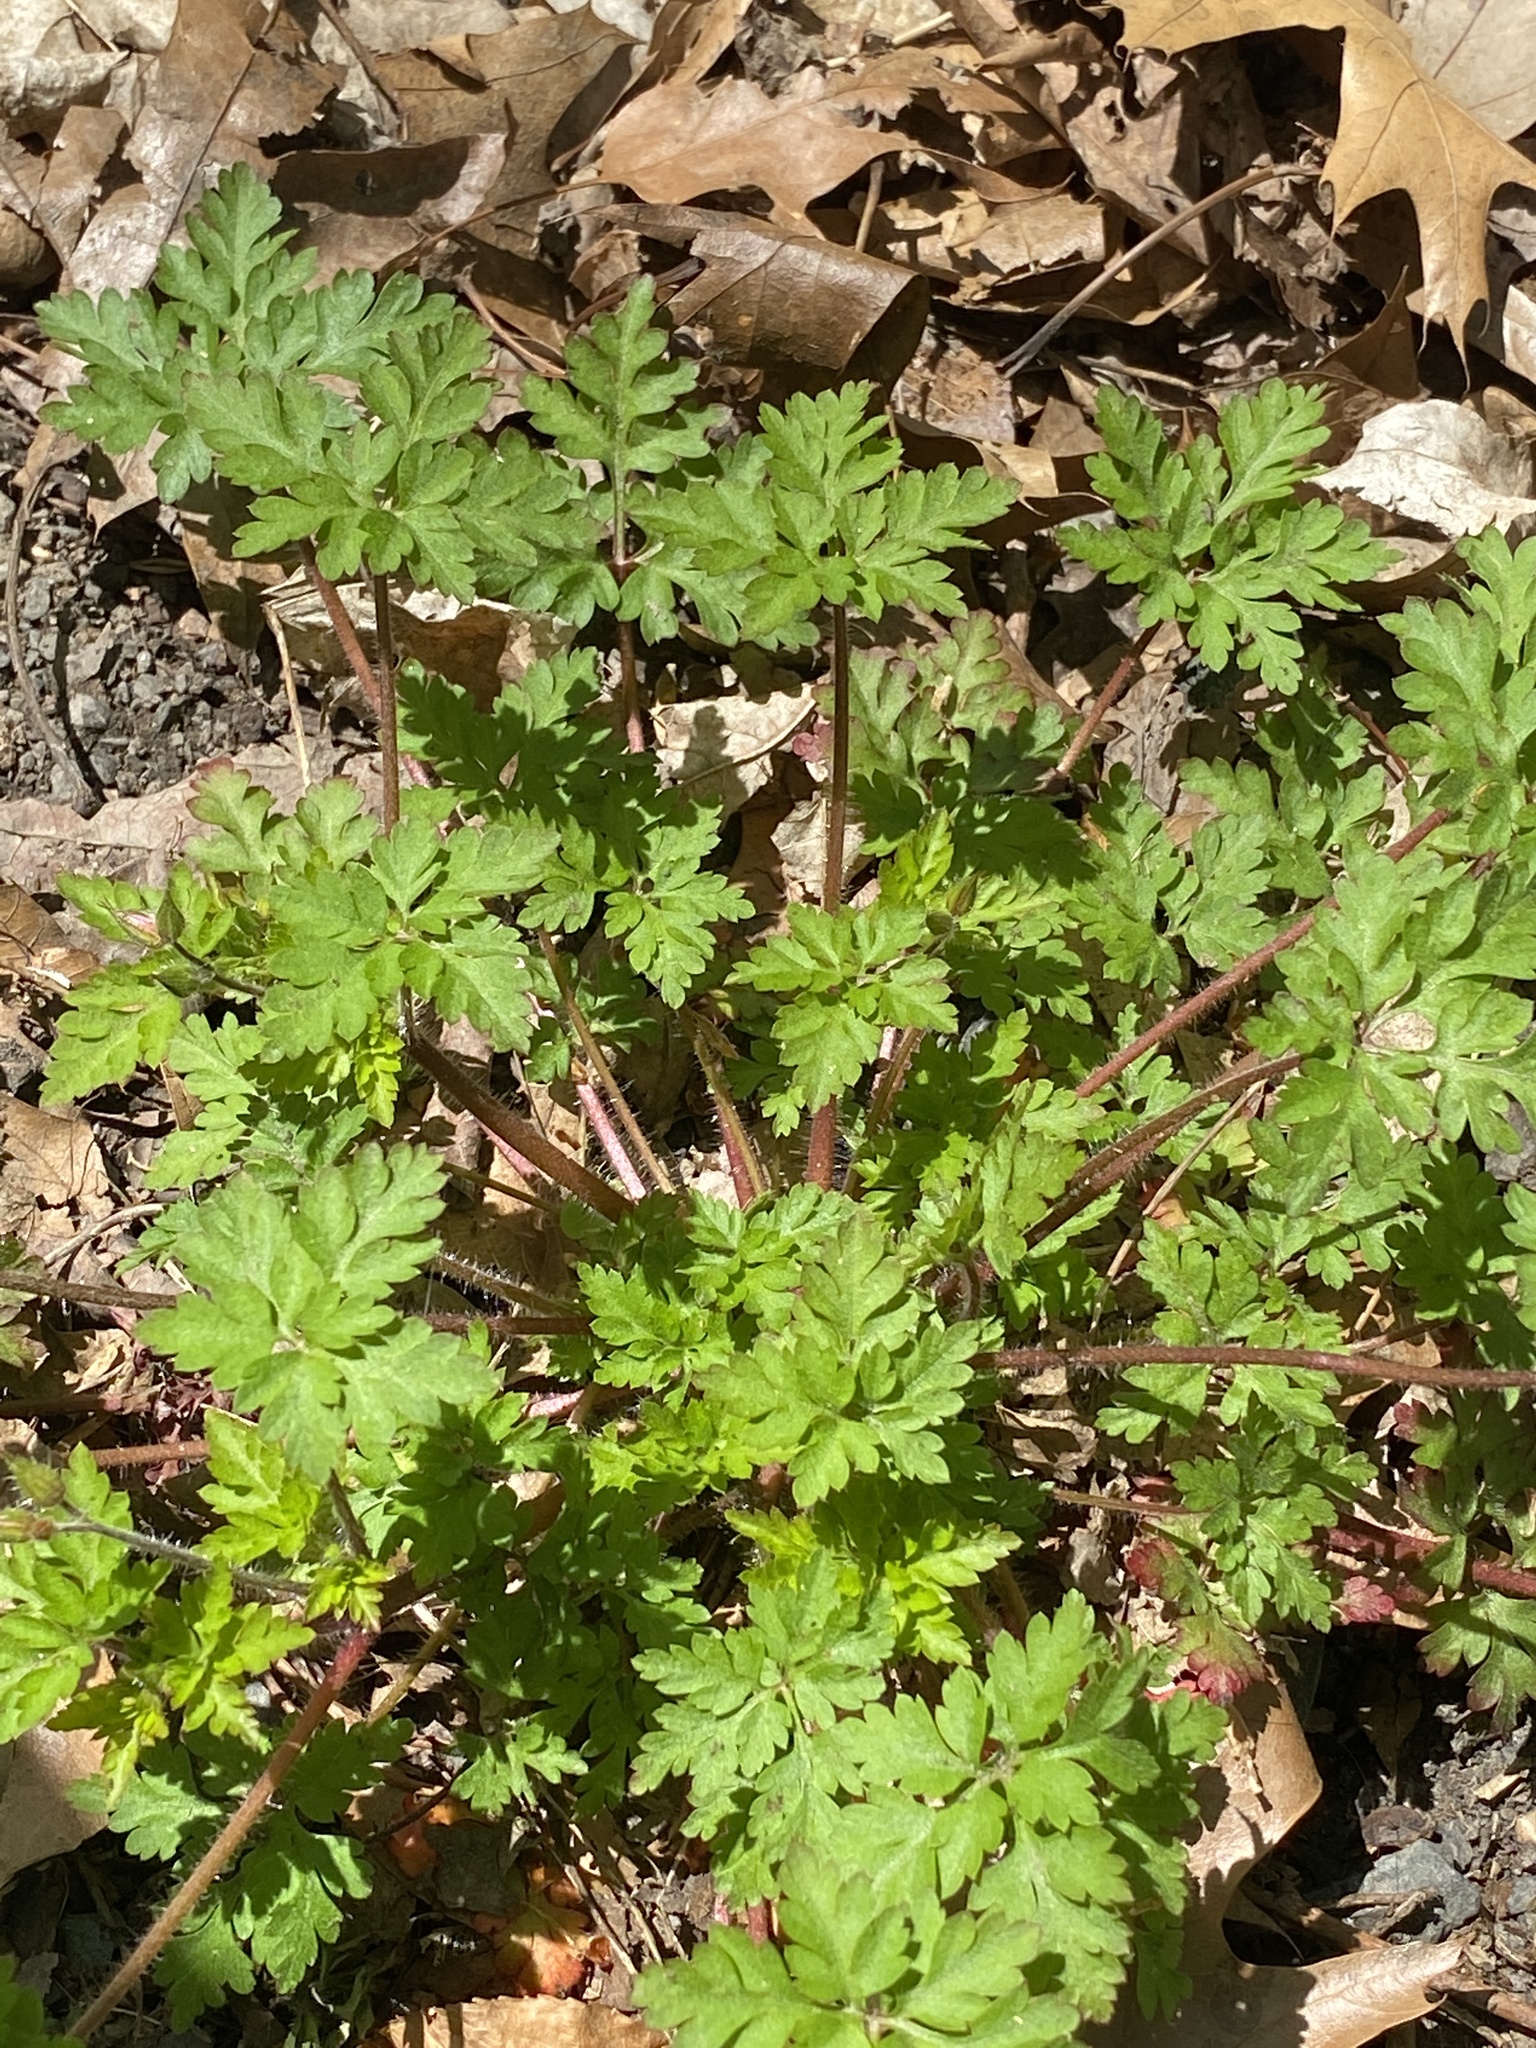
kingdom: Plantae
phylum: Tracheophyta
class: Magnoliopsida
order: Geraniales
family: Geraniaceae
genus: Geranium
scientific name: Geranium robertianum
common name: Herb-robert
